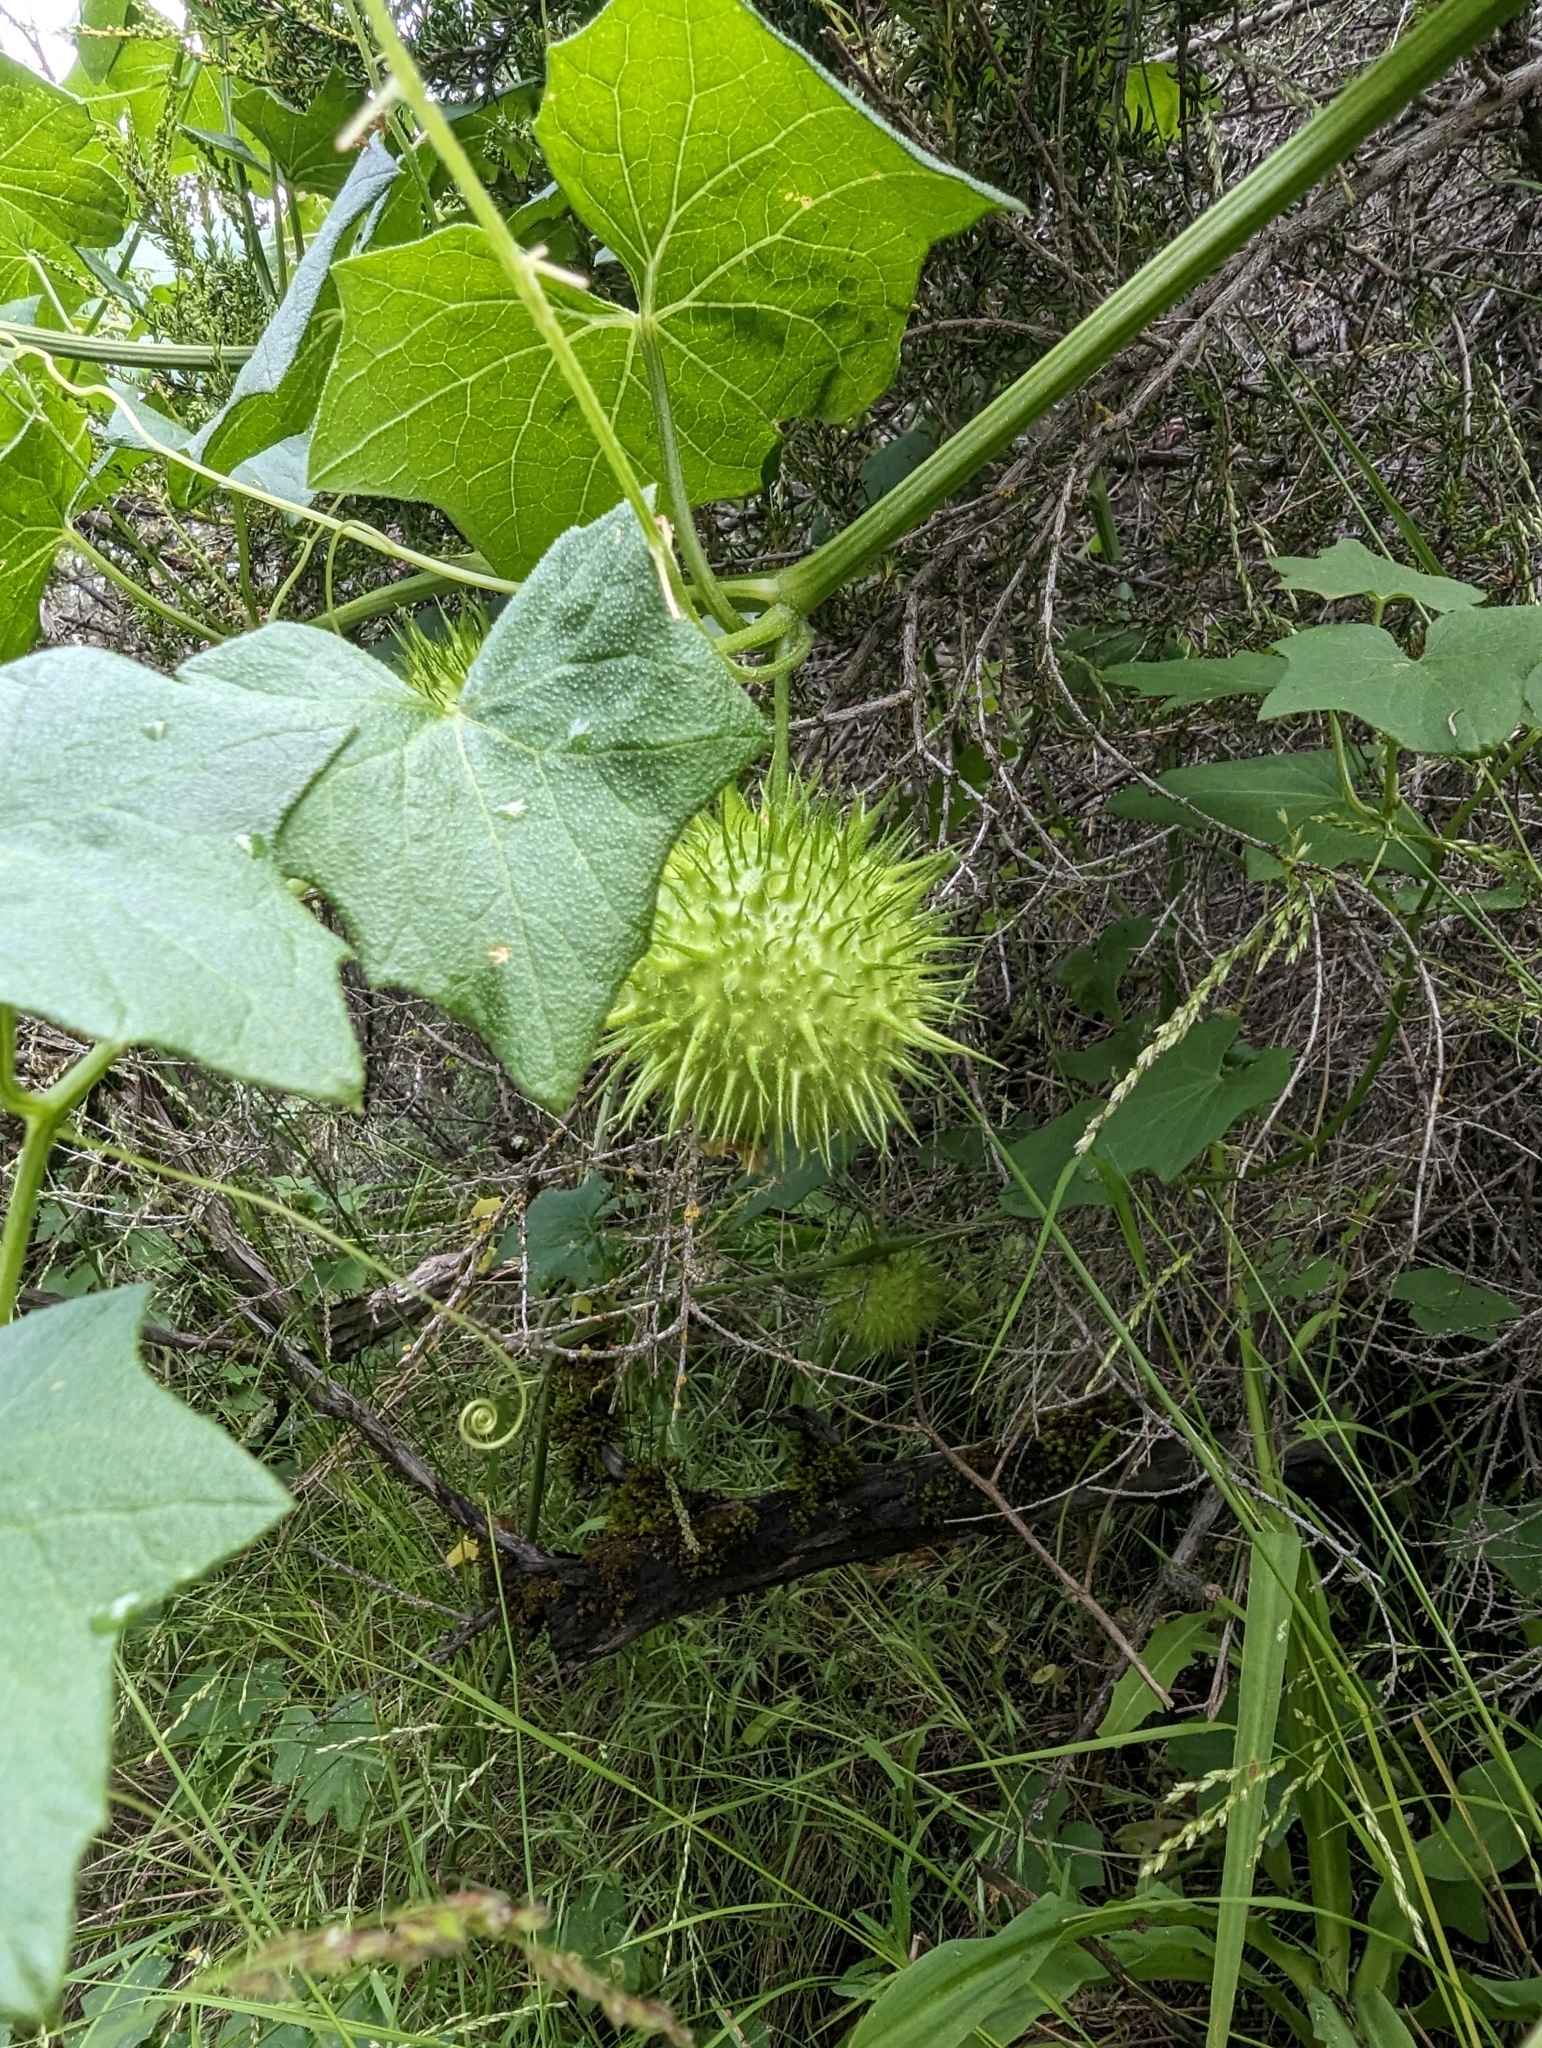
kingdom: Plantae
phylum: Tracheophyta
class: Magnoliopsida
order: Cucurbitales
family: Cucurbitaceae
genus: Marah
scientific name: Marah fabacea
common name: California manroot
